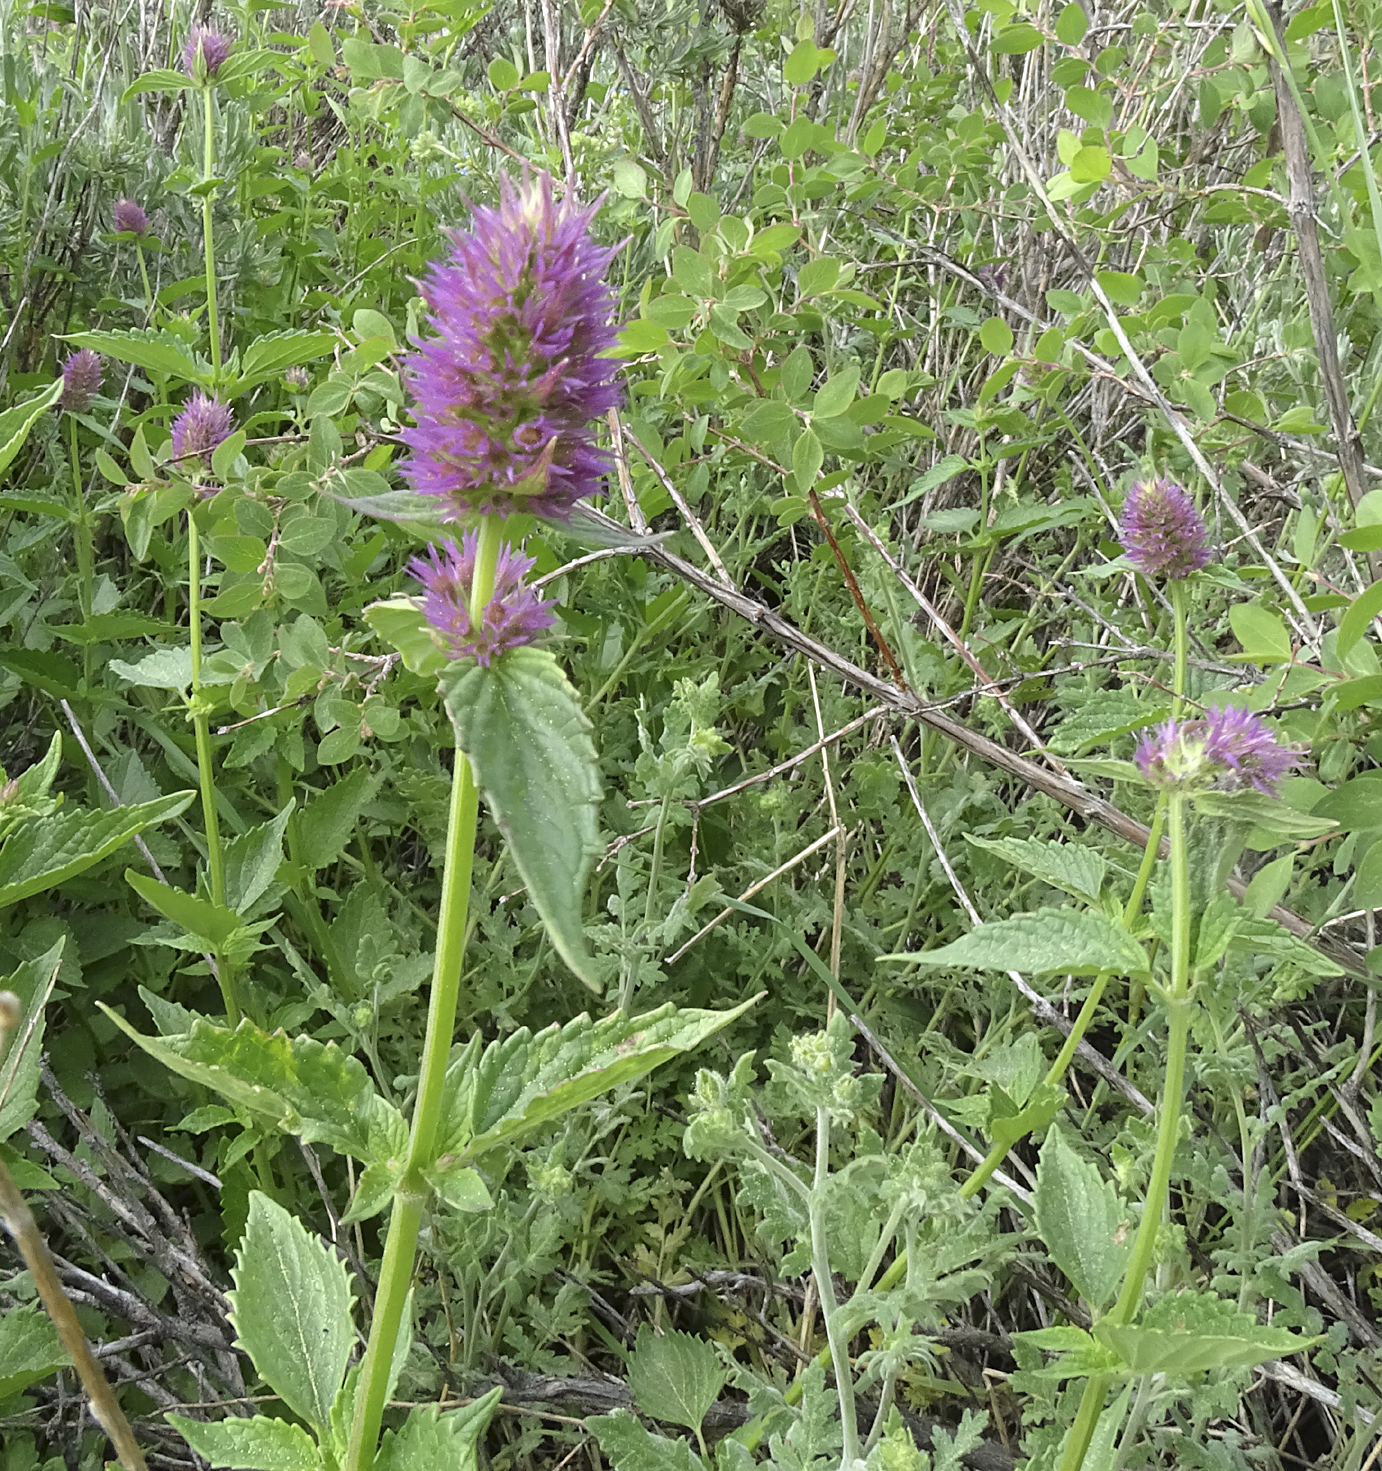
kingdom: Plantae
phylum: Tracheophyta
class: Magnoliopsida
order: Lamiales
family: Lamiaceae
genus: Agastache
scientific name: Agastache urticifolia
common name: Horsemint giant hyssop
